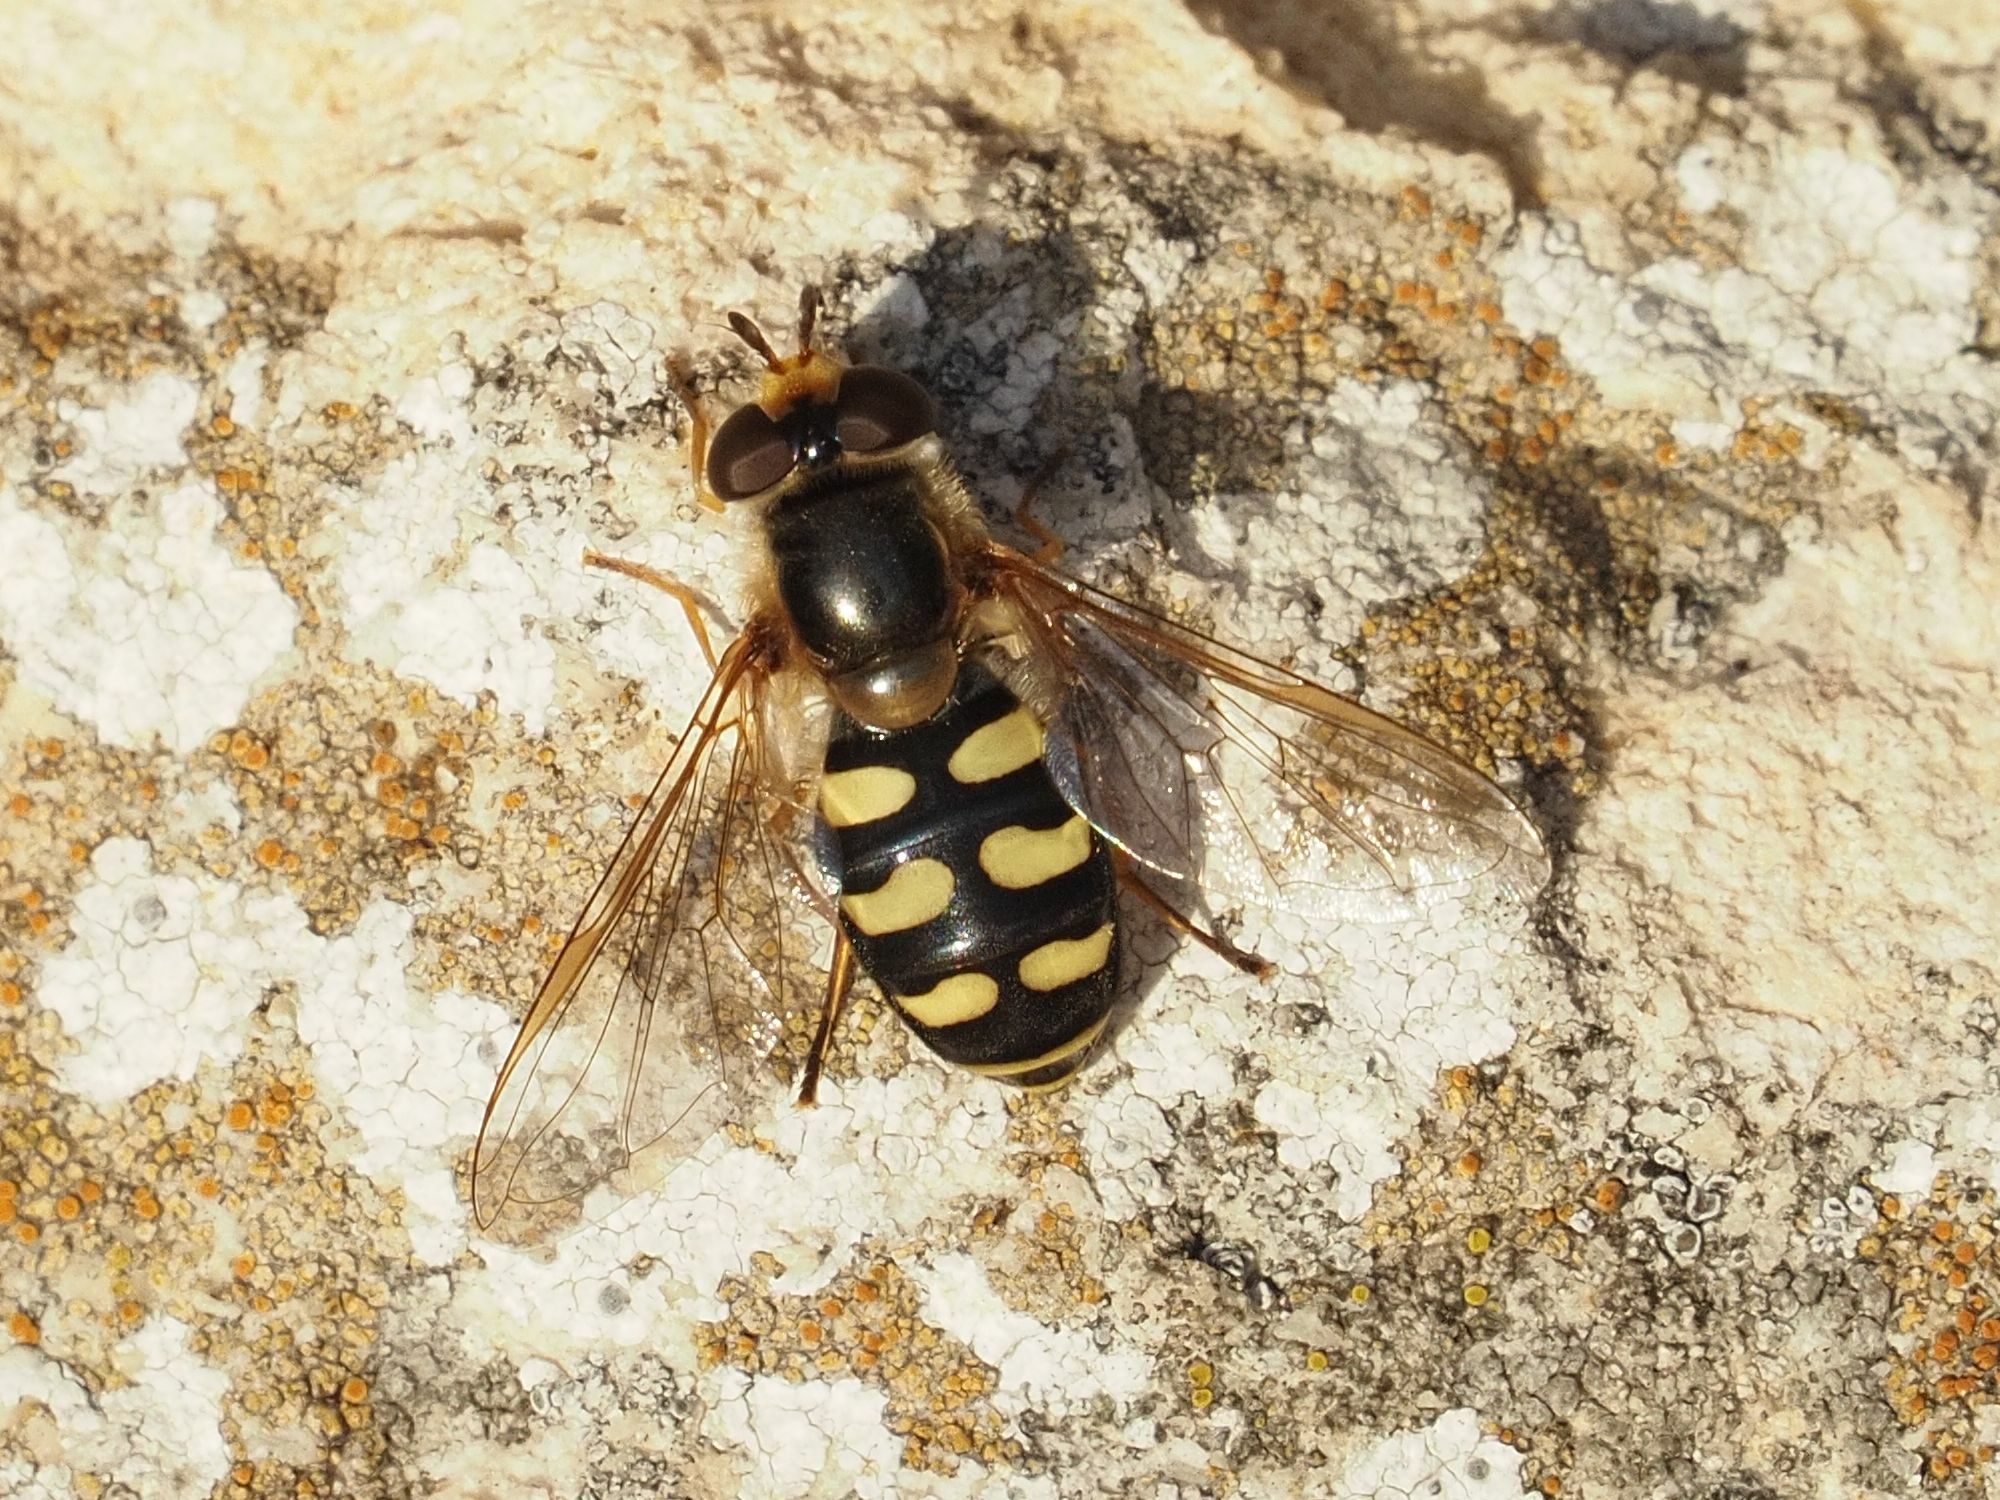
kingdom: Animalia
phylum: Arthropoda
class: Insecta
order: Diptera
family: Syrphidae
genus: Eupeodes
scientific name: Eupeodes luniger
